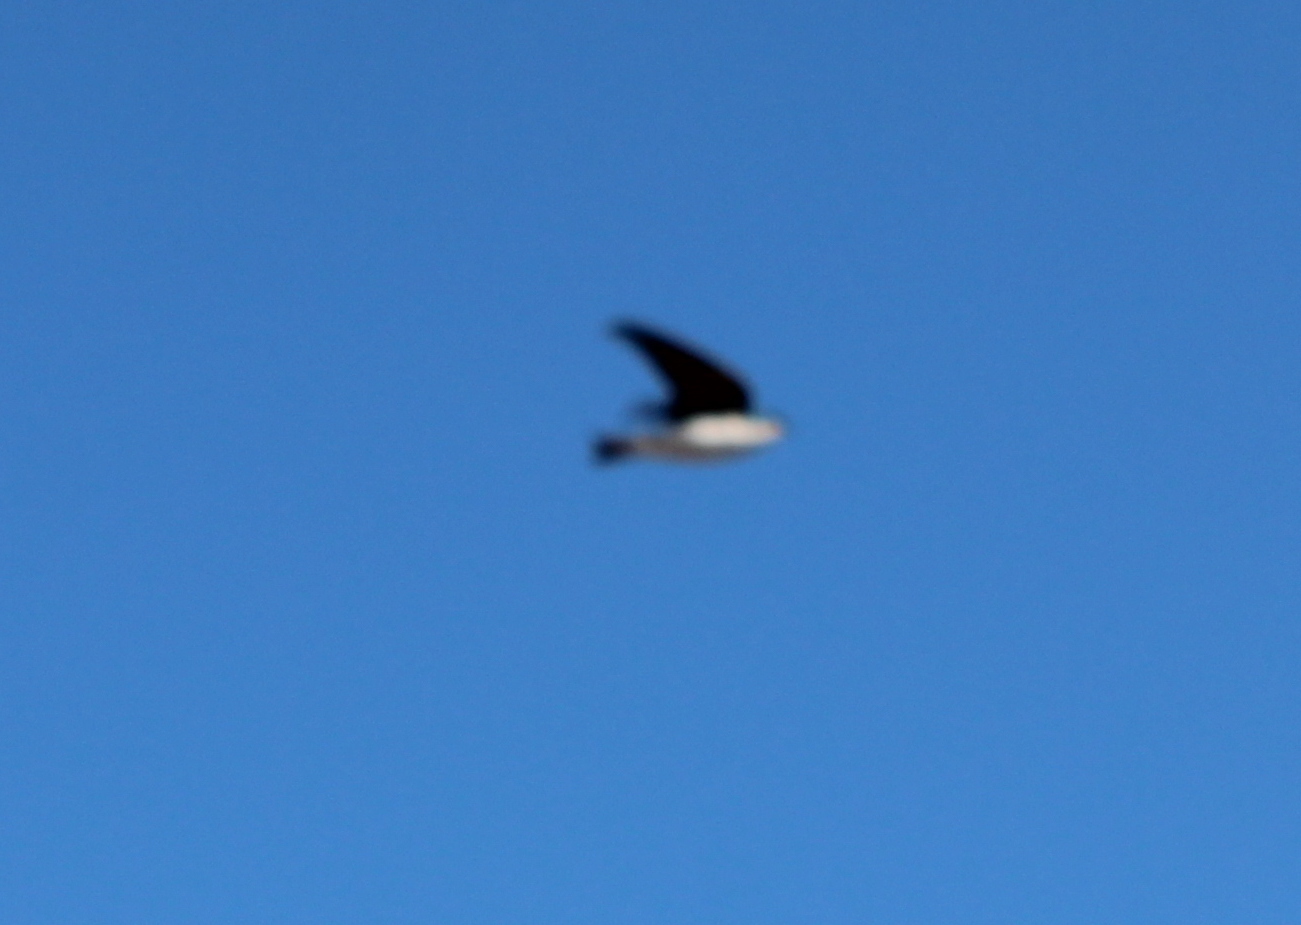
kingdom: Animalia
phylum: Chordata
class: Aves
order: Passeriformes
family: Hirundinidae
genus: Tachycineta
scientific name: Tachycineta bicolor
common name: Tree swallow
